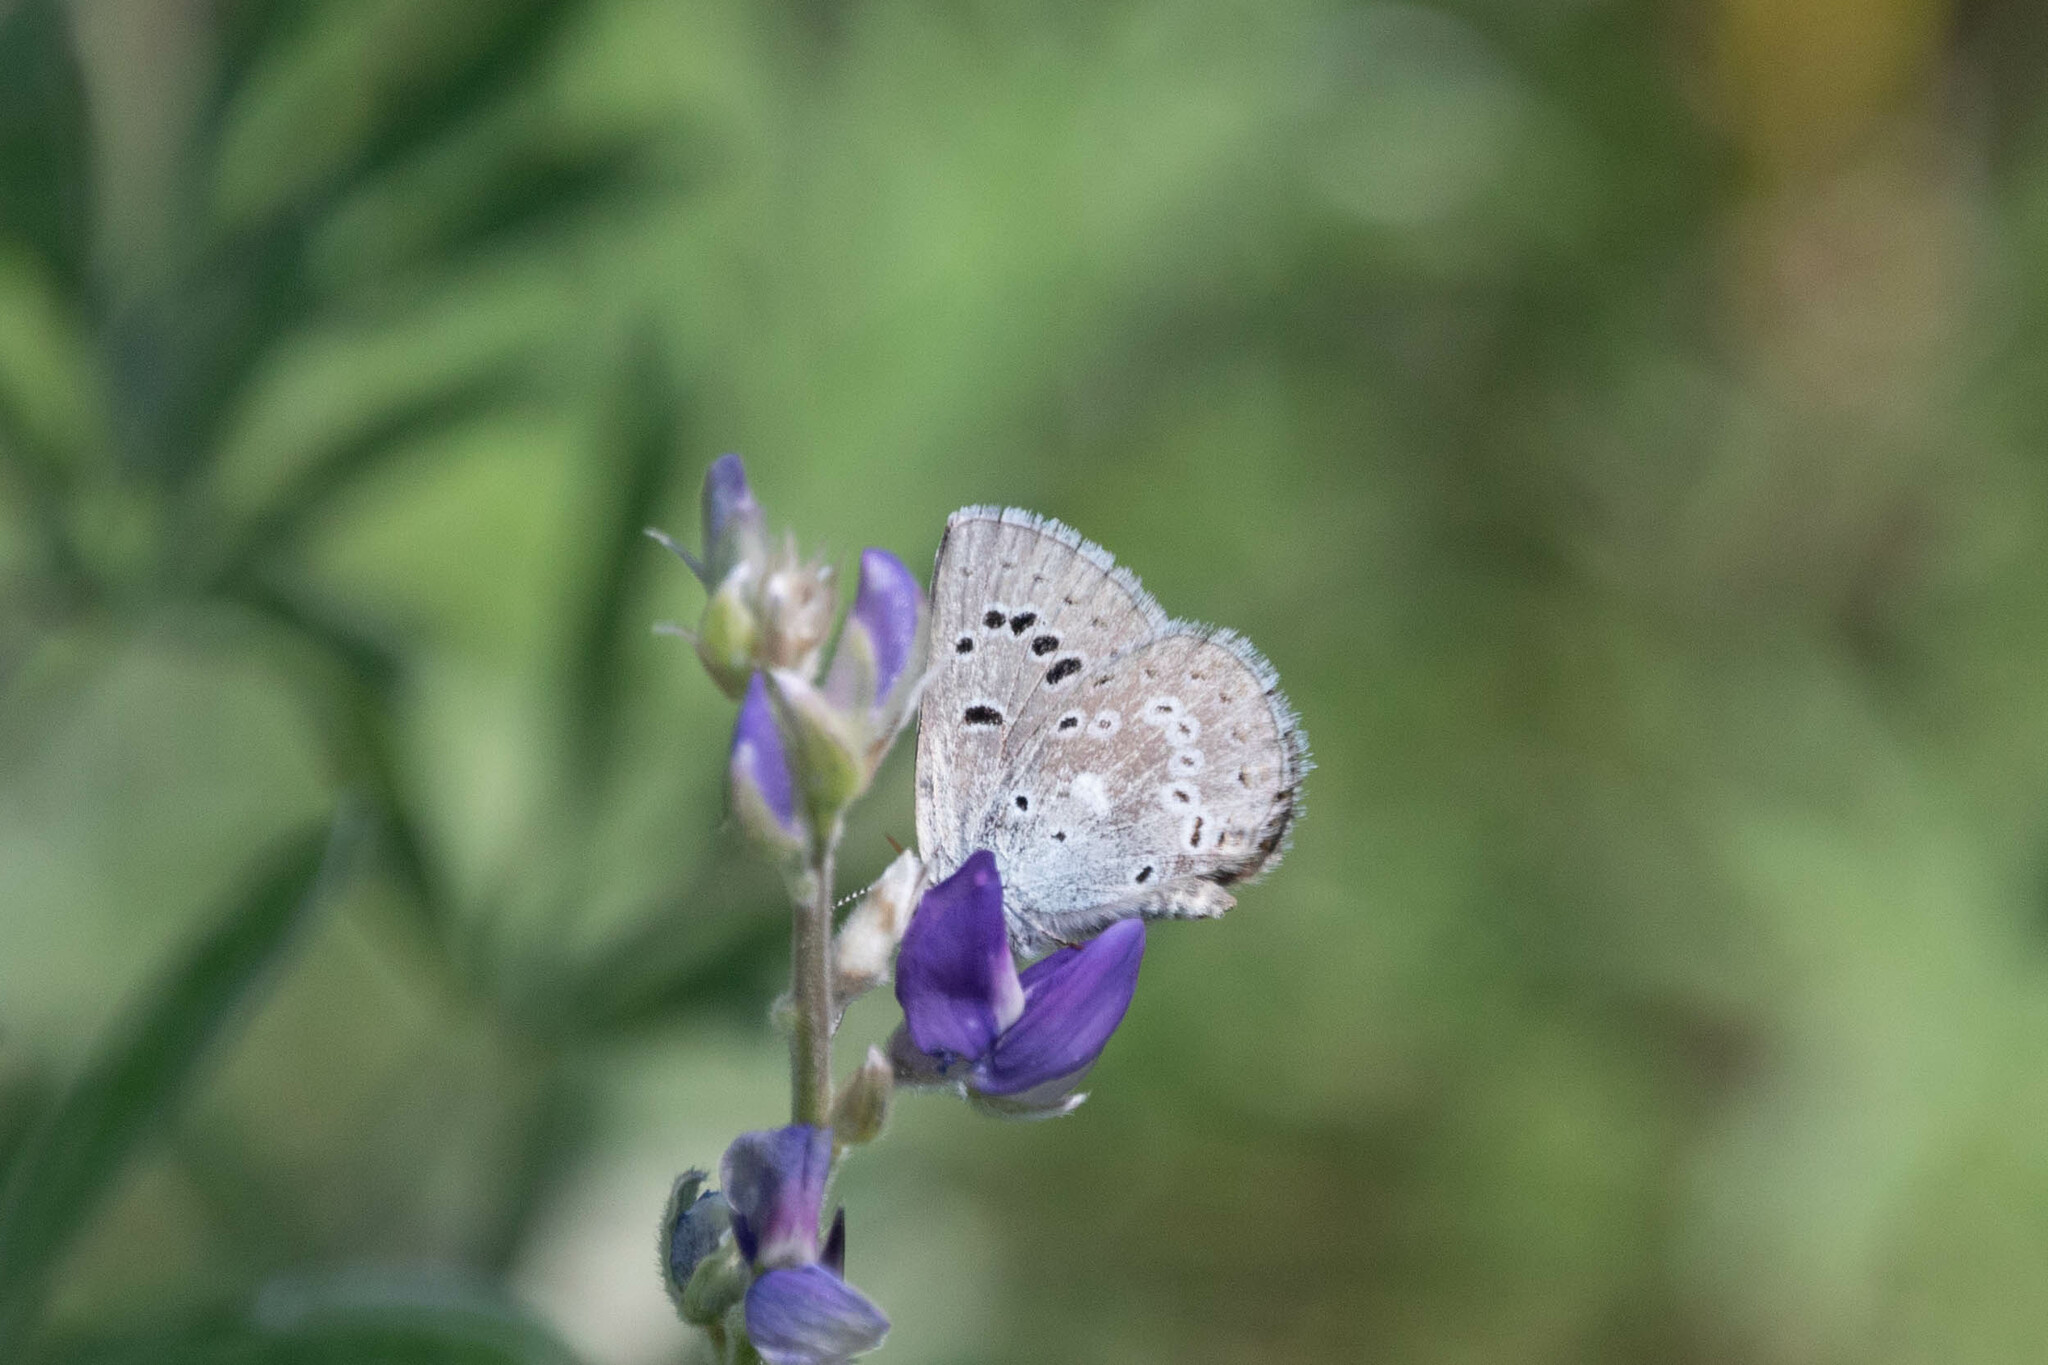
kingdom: Animalia
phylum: Arthropoda
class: Insecta
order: Lepidoptera
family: Lycaenidae
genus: Icaricia
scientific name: Icaricia icarioides
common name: Boisduval's blue
